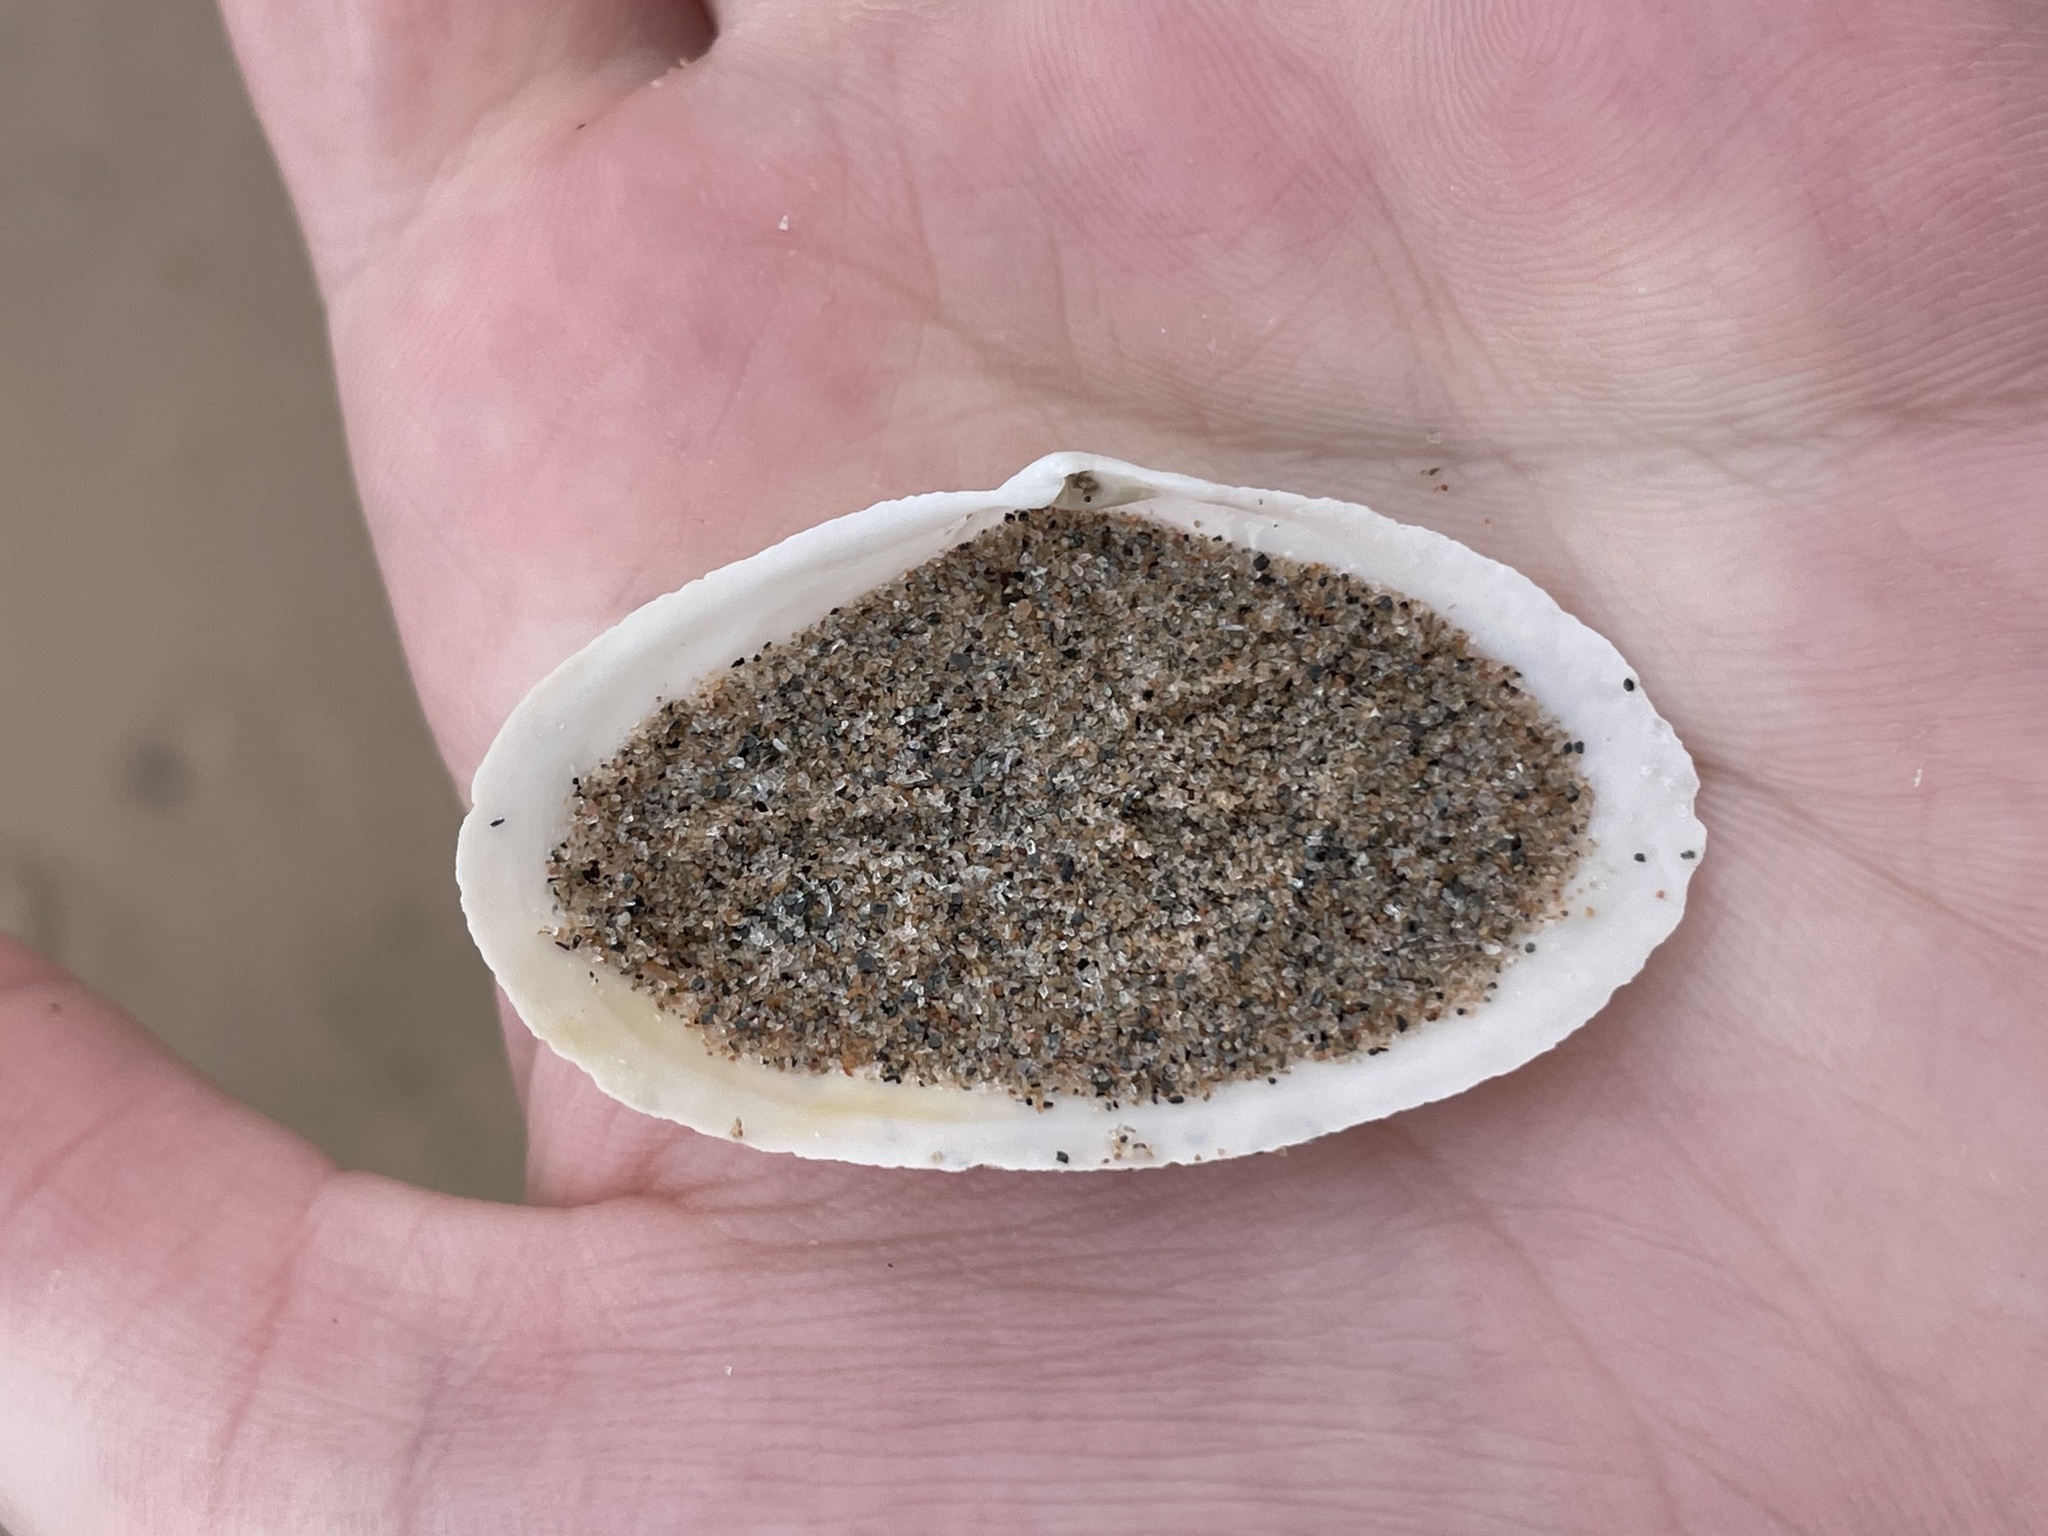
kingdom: Animalia
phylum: Mollusca
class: Bivalvia
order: Myida
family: Myidae
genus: Mya
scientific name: Mya arenaria
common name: Soft-shelled clam
